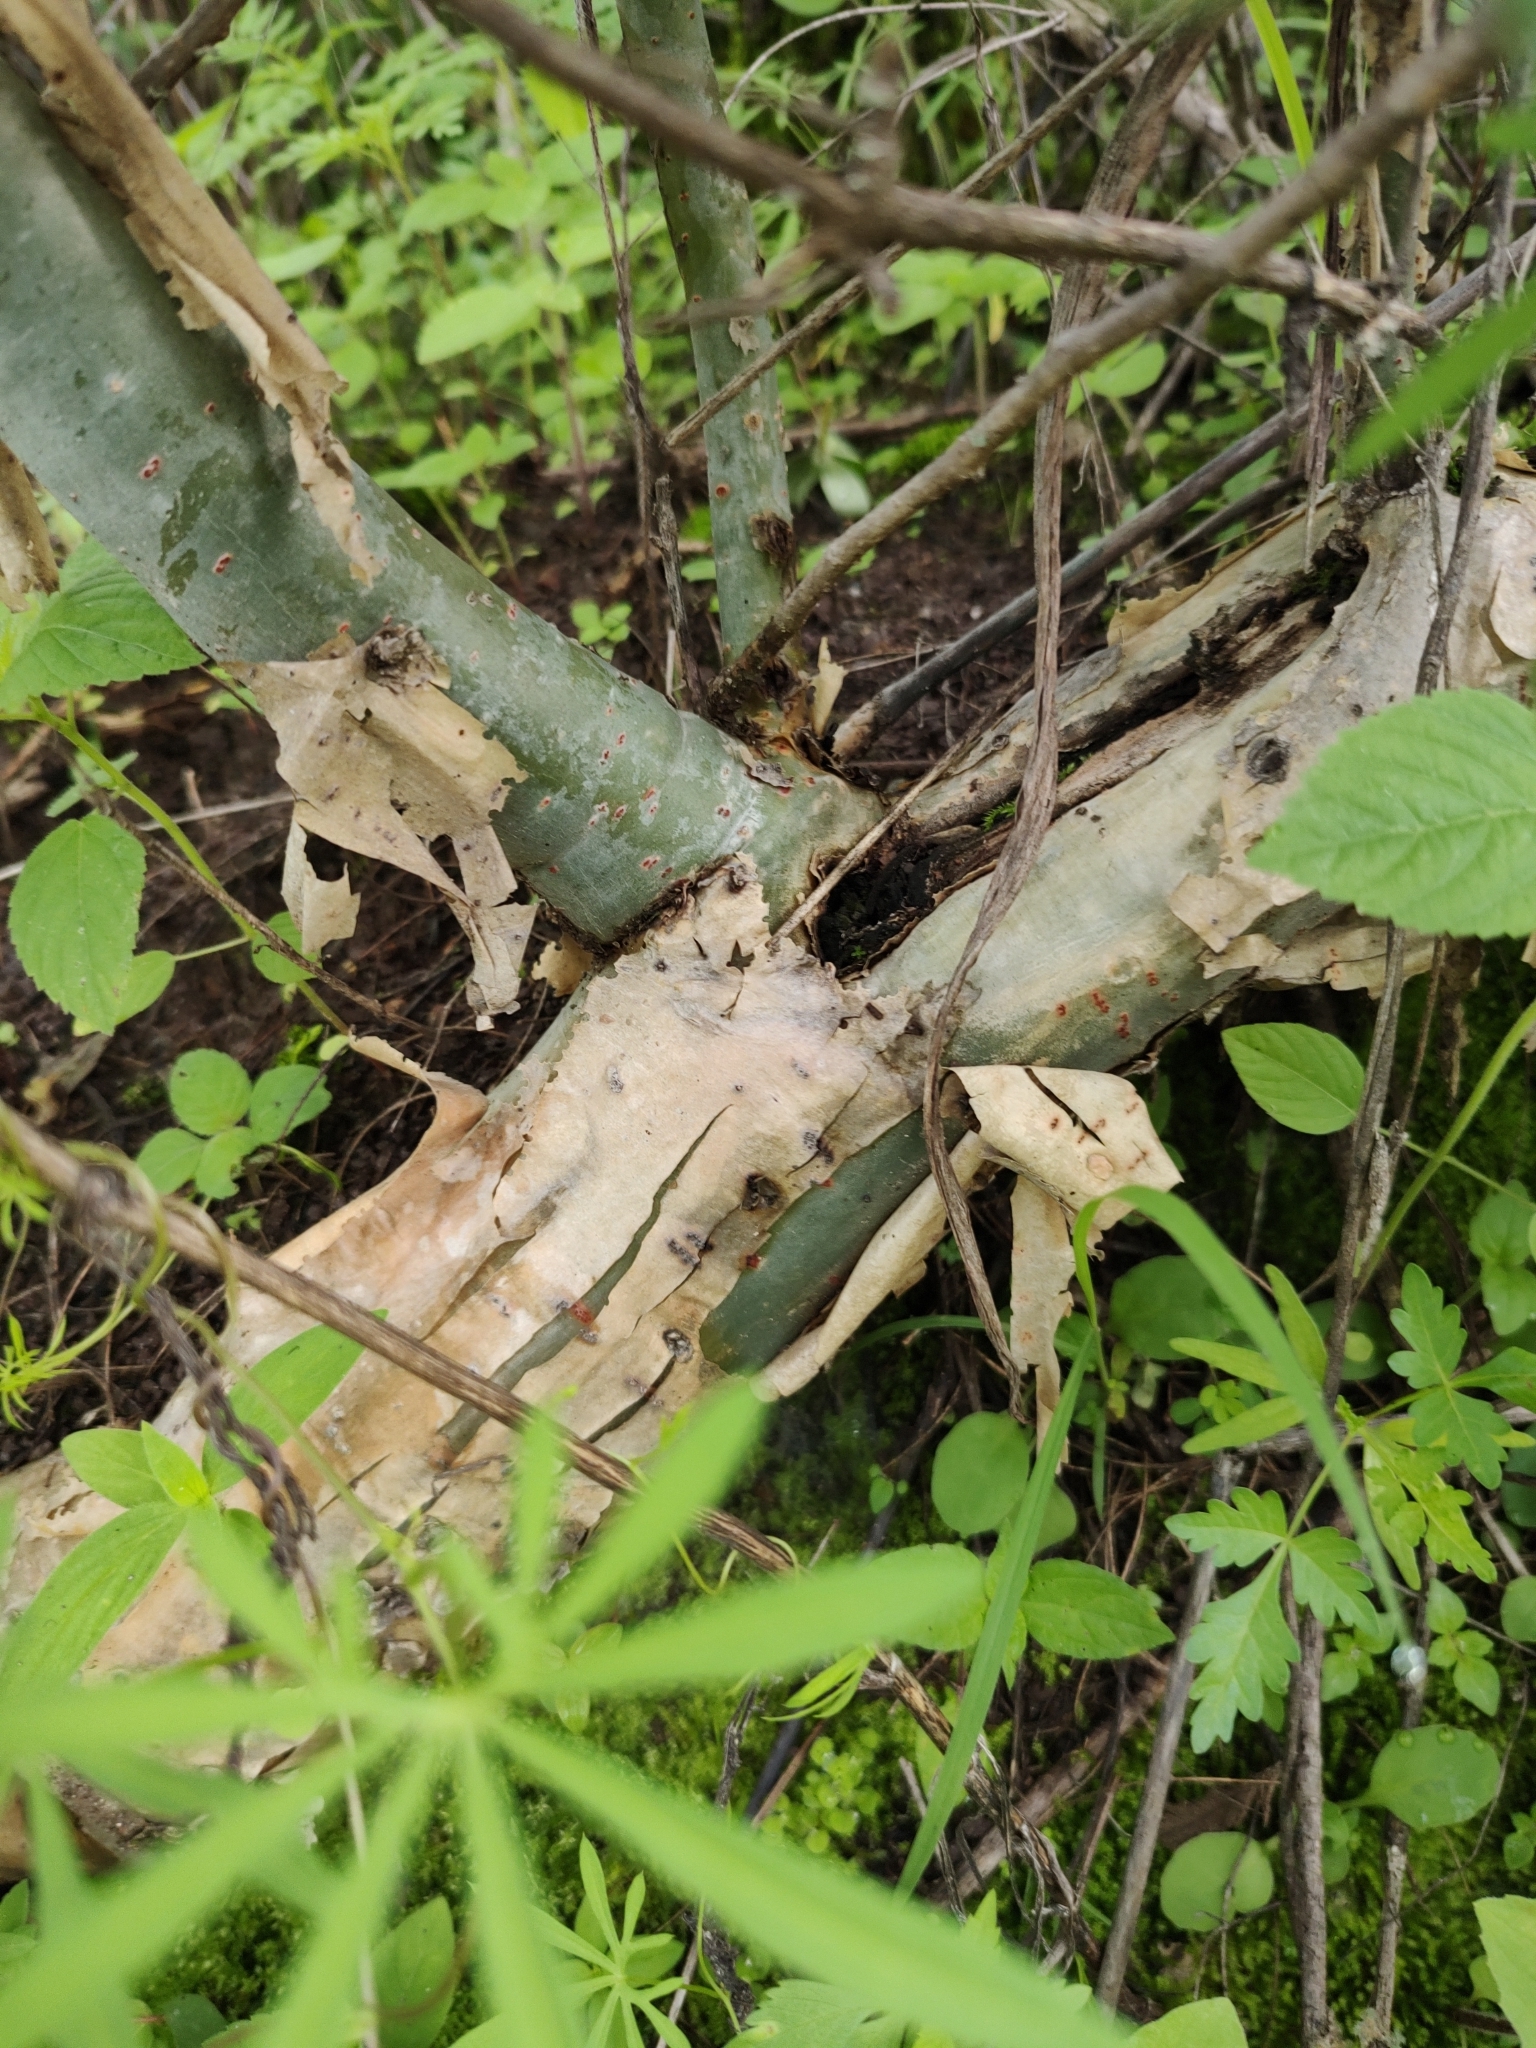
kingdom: Plantae
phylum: Tracheophyta
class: Magnoliopsida
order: Sapindales
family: Burseraceae
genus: Bursera
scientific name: Bursera ariensis
